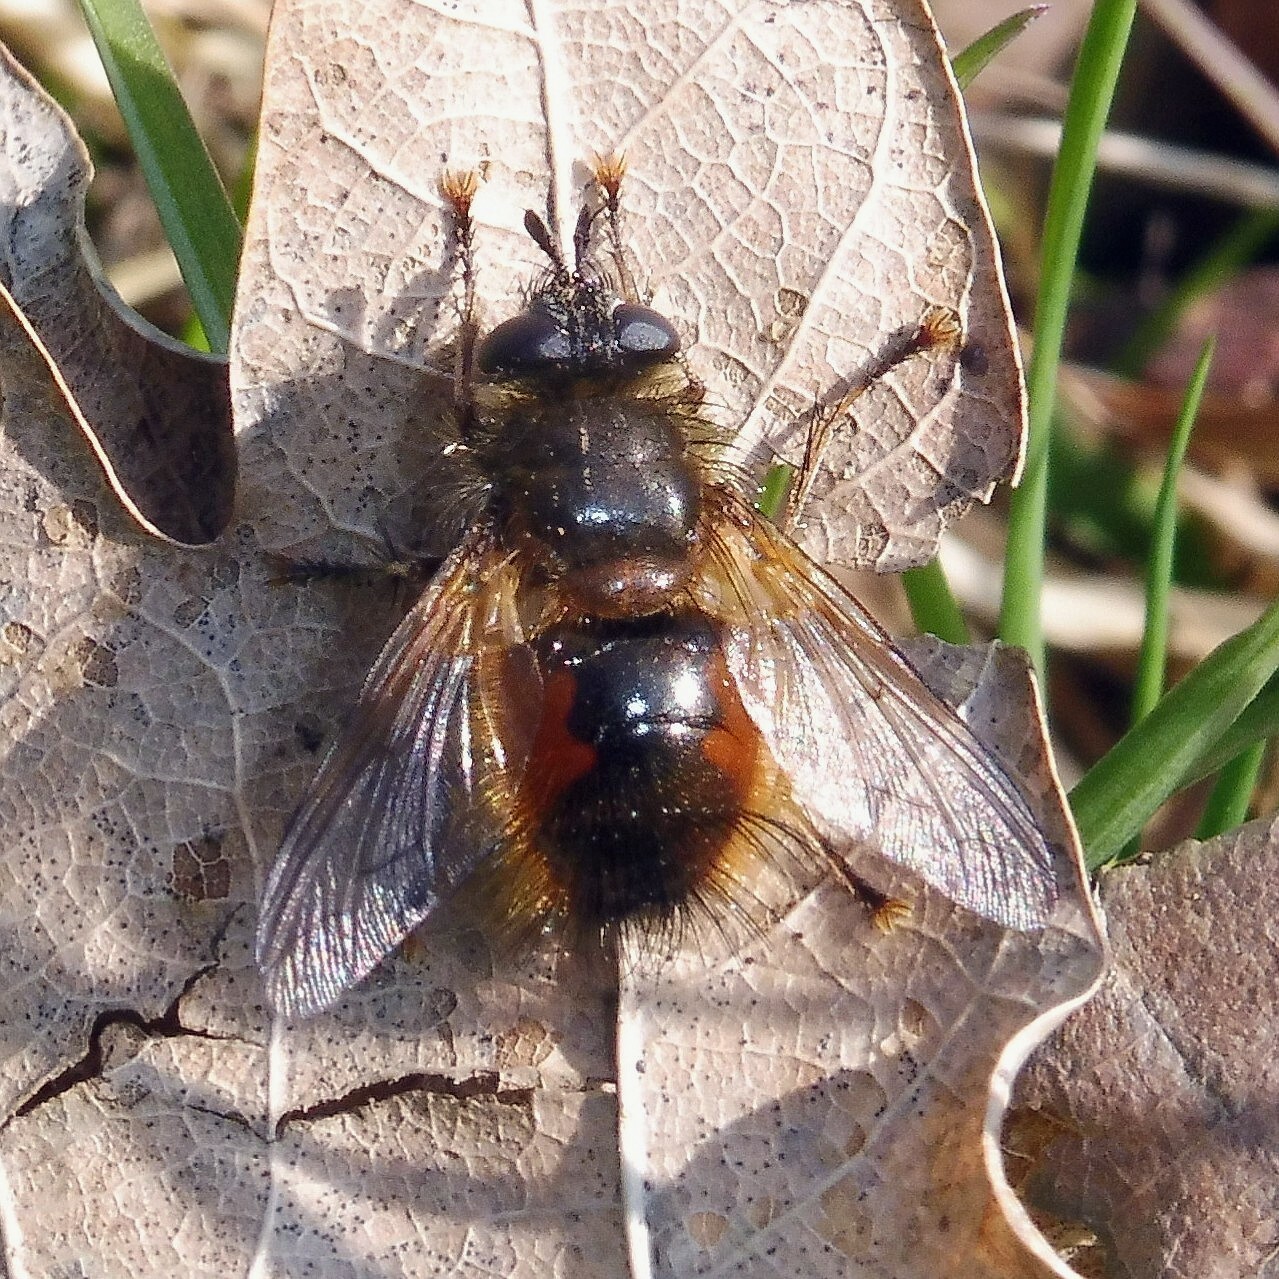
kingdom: Animalia
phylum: Arthropoda
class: Insecta
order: Diptera
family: Tachinidae
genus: Tachina
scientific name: Tachina lurida
